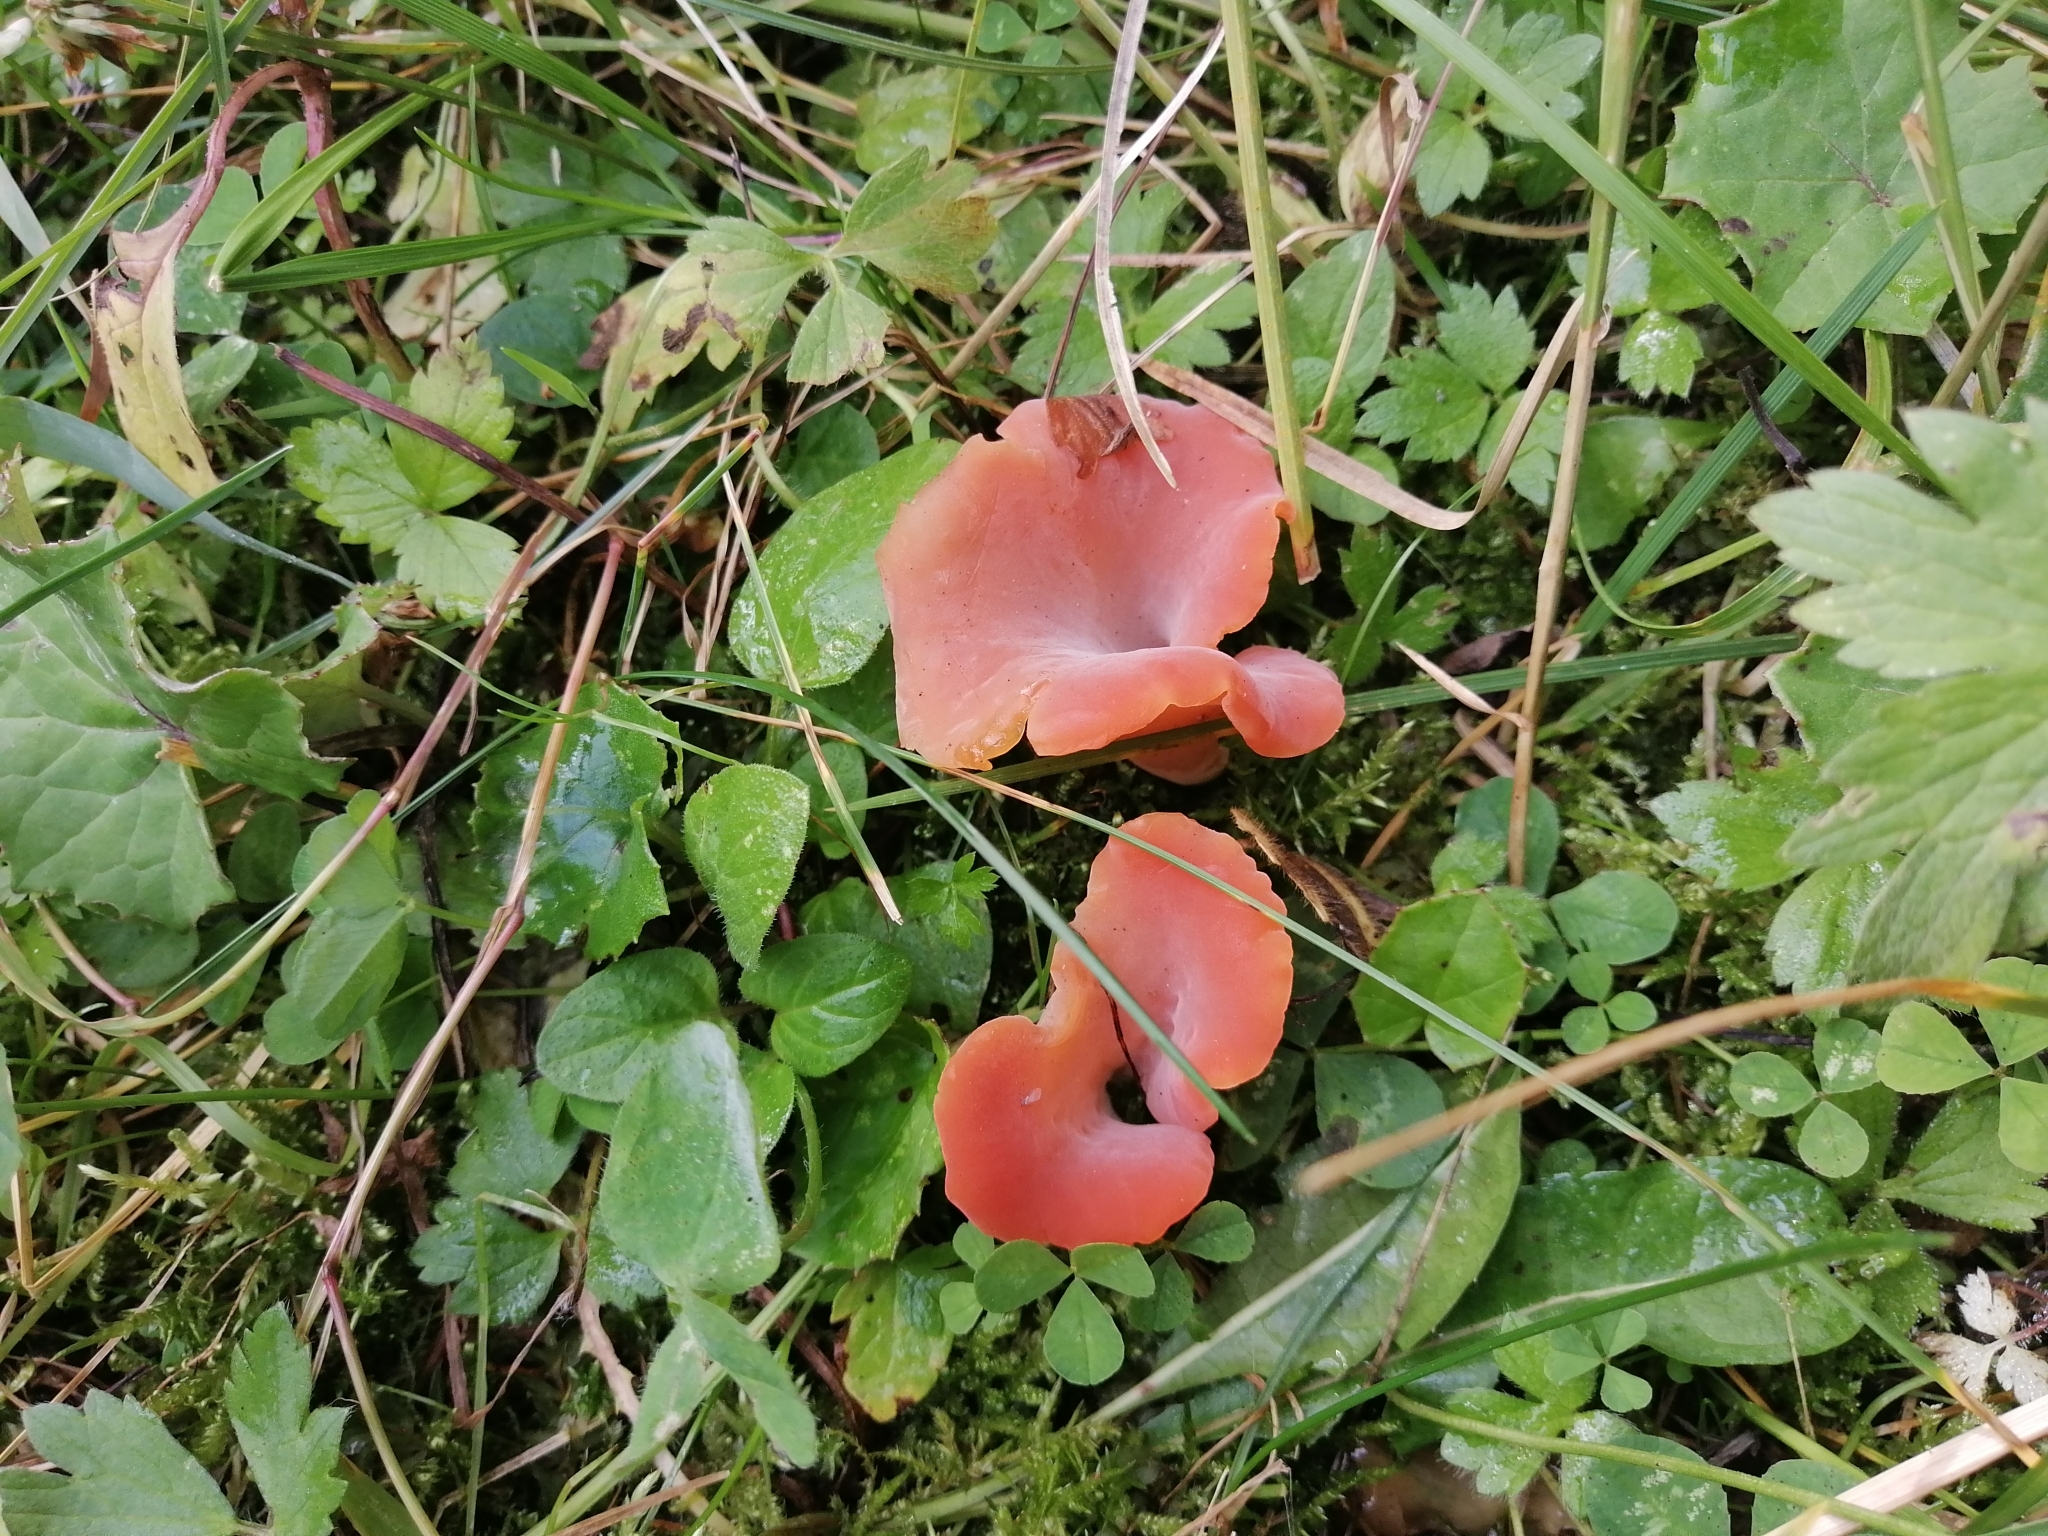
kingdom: Fungi
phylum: Basidiomycota
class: Agaricomycetes
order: Auriculariales
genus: Guepinia
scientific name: Guepinia helvelloides
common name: Salmon salad
